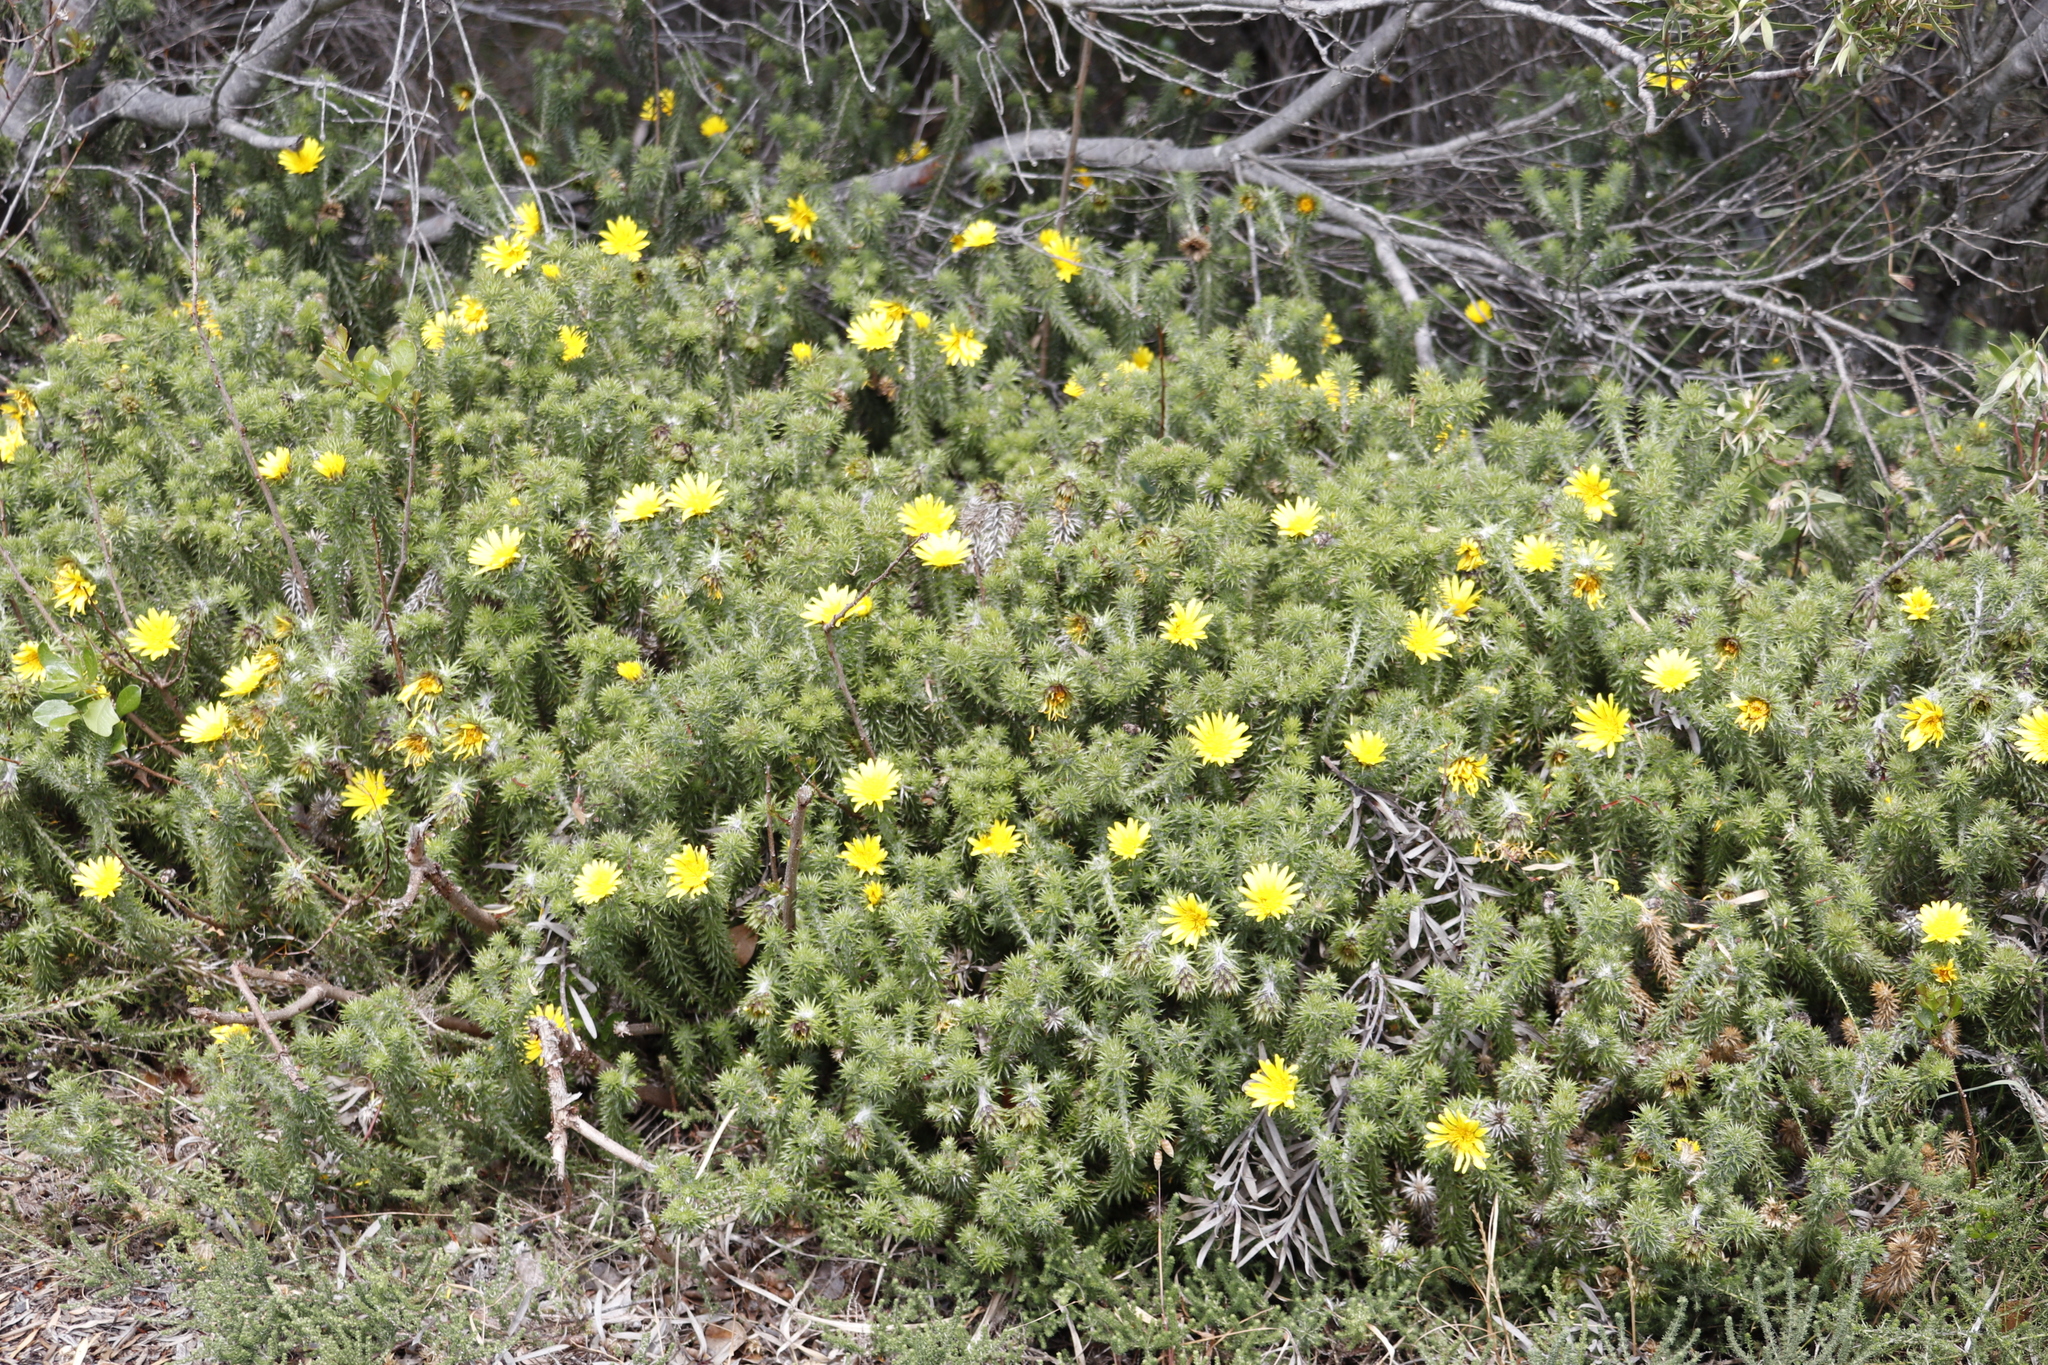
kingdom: Plantae
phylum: Tracheophyta
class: Magnoliopsida
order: Asterales
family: Asteraceae
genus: Cullumia
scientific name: Cullumia squarrosa
